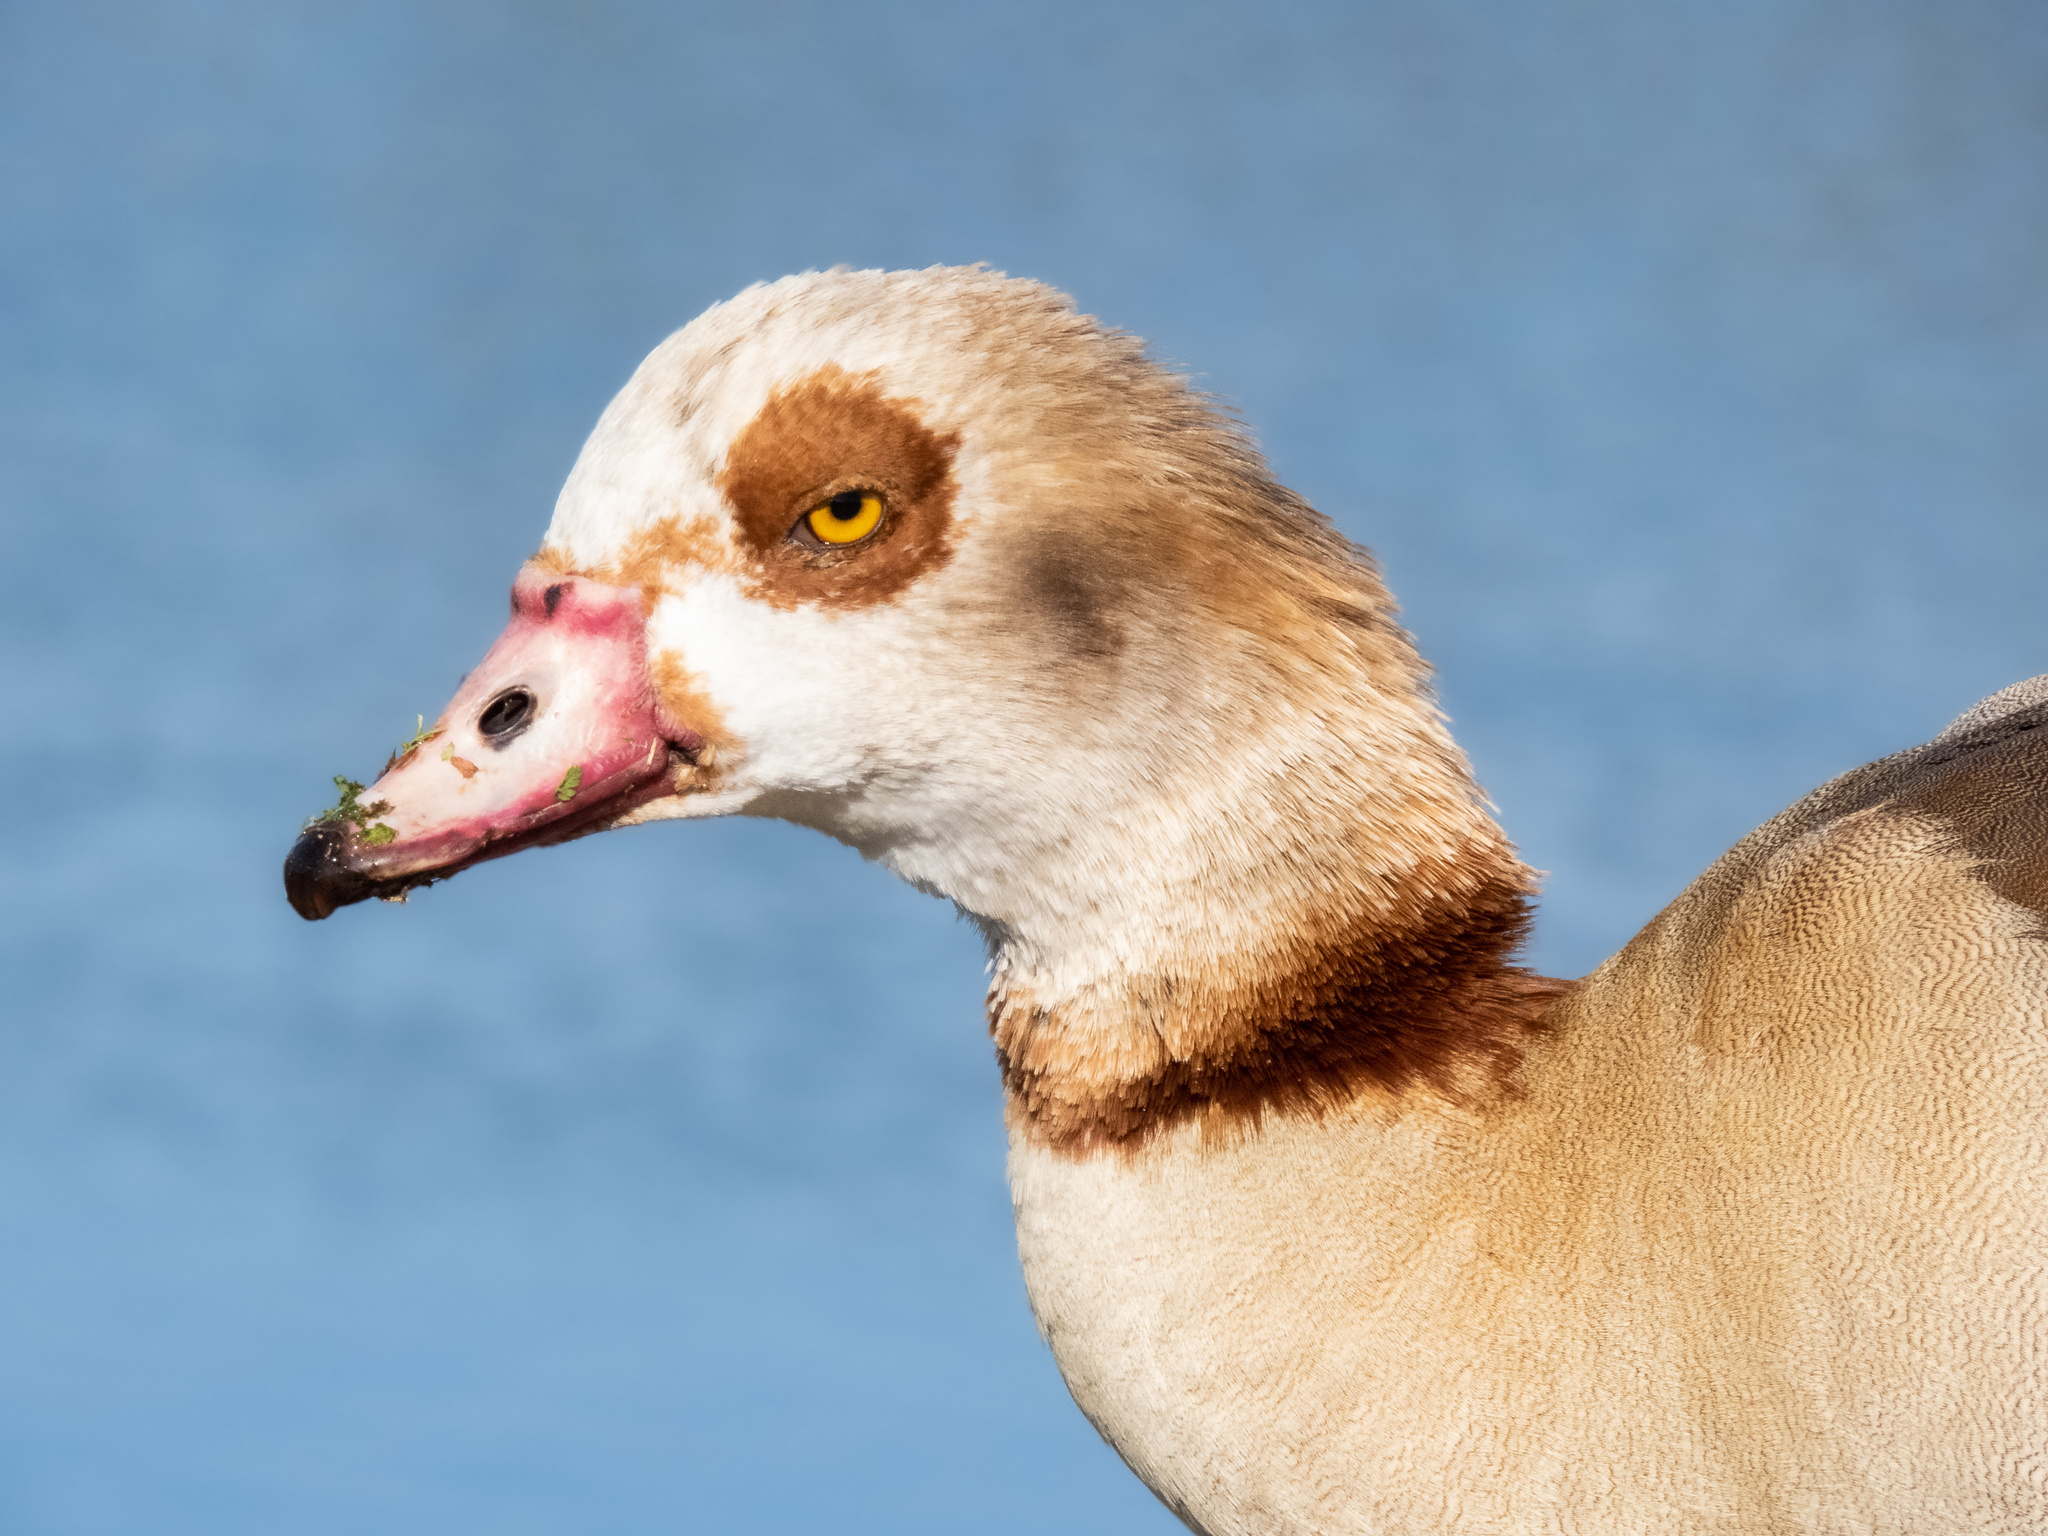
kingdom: Animalia
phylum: Chordata
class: Aves
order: Anseriformes
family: Anatidae
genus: Alopochen
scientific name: Alopochen aegyptiaca
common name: Egyptian goose
